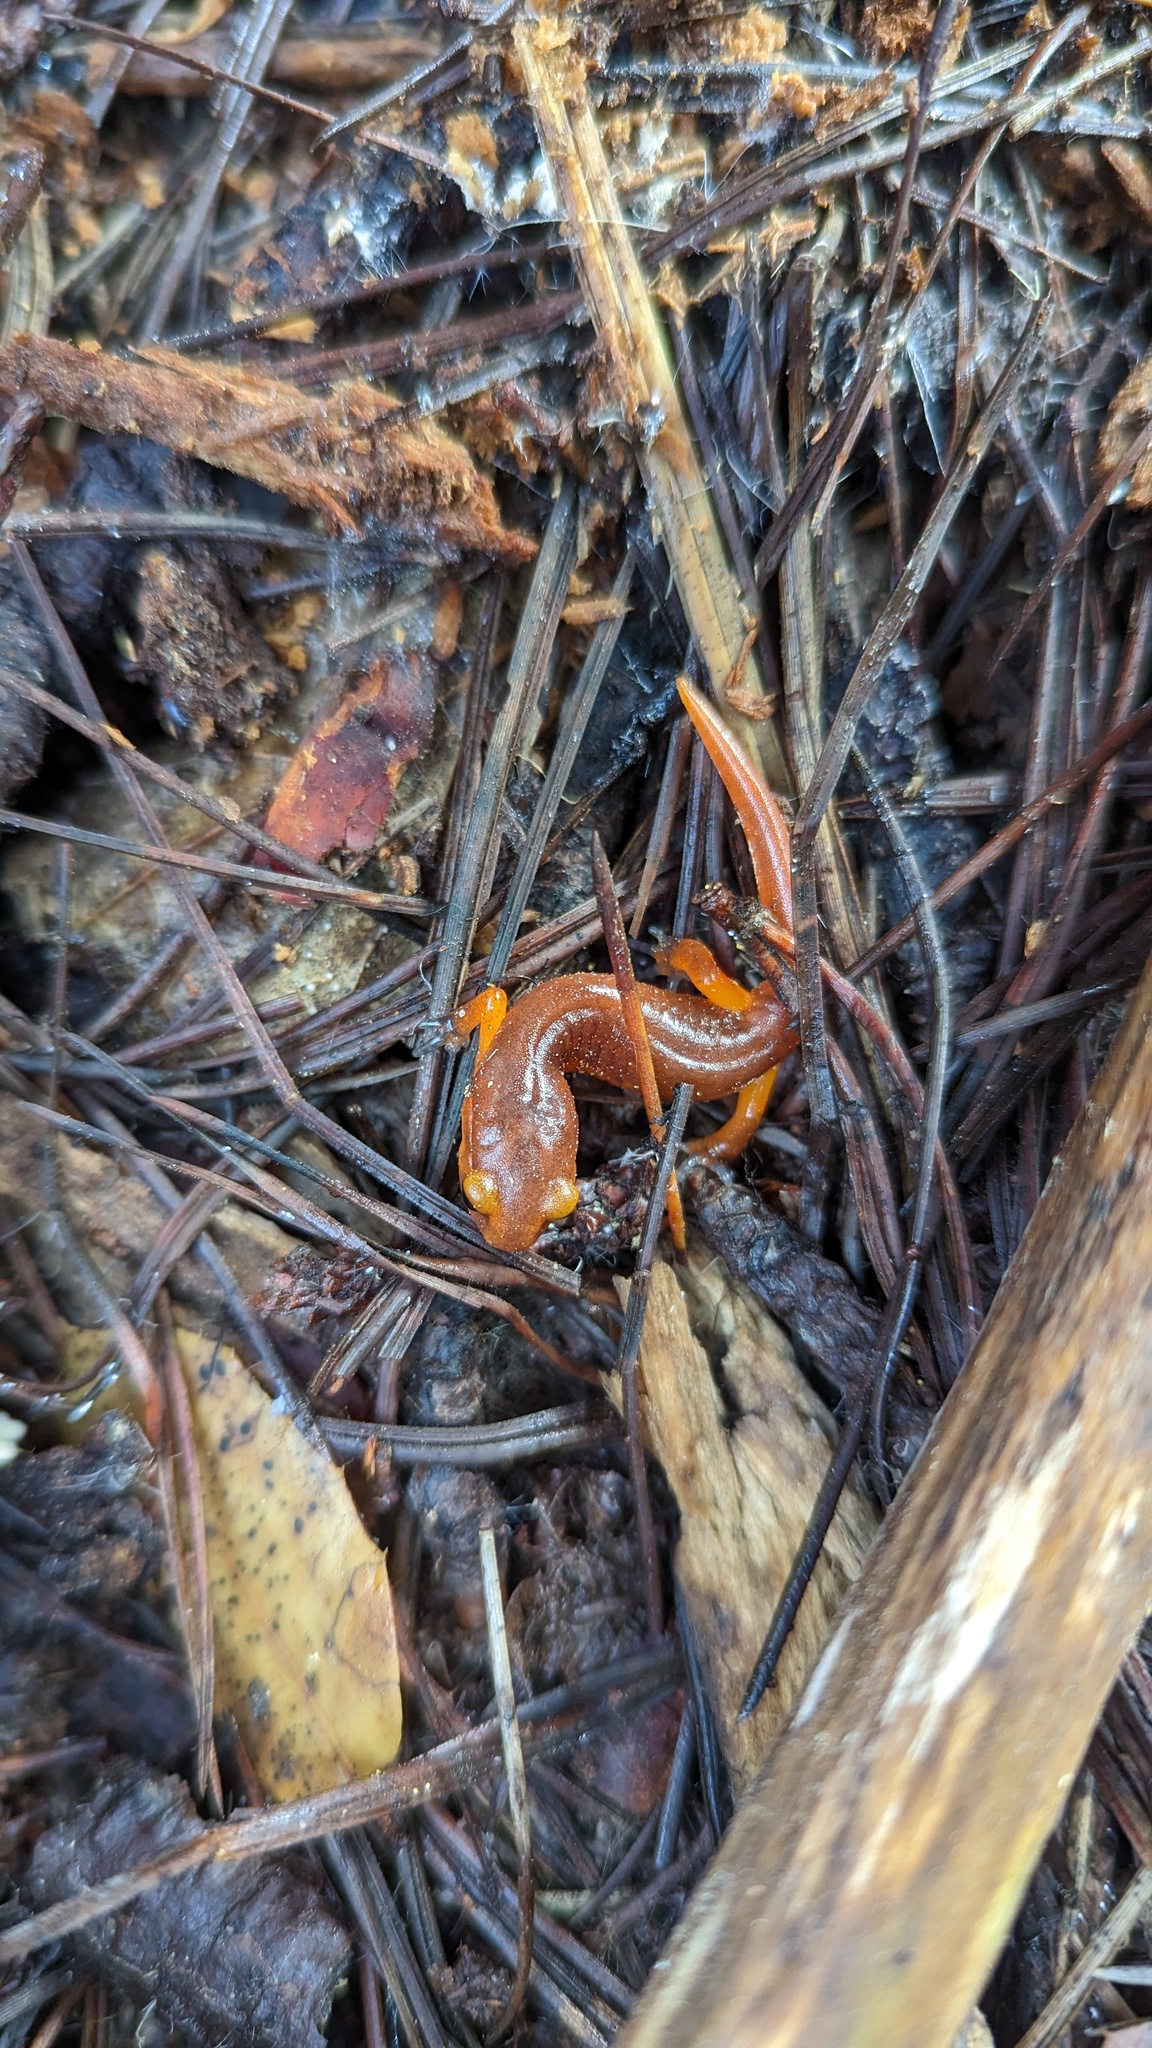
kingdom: Animalia
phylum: Chordata
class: Amphibia
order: Caudata
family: Plethodontidae
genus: Ensatina
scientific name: Ensatina eschscholtzii
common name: Ensatina
